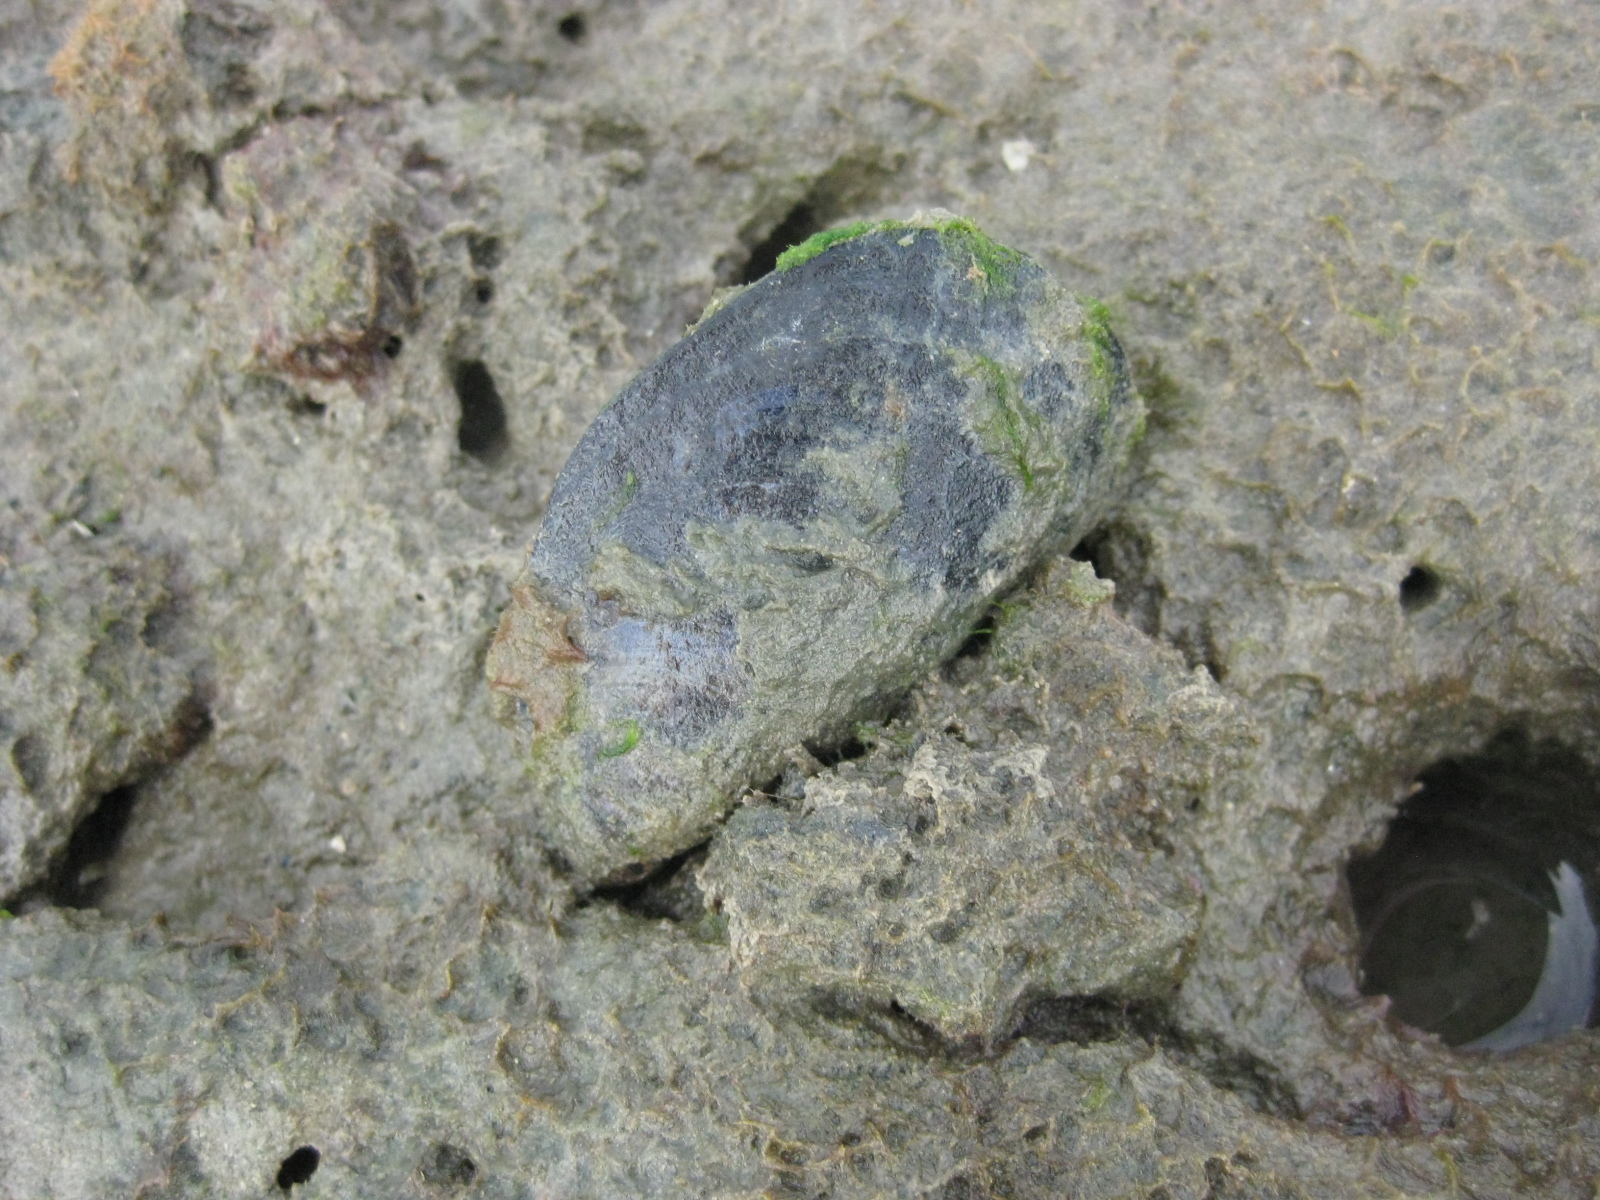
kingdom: Animalia
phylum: Mollusca
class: Bivalvia
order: Mytilida
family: Mytilidae
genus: Perna
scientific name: Perna canaliculus
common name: New zealand greenshelltm
